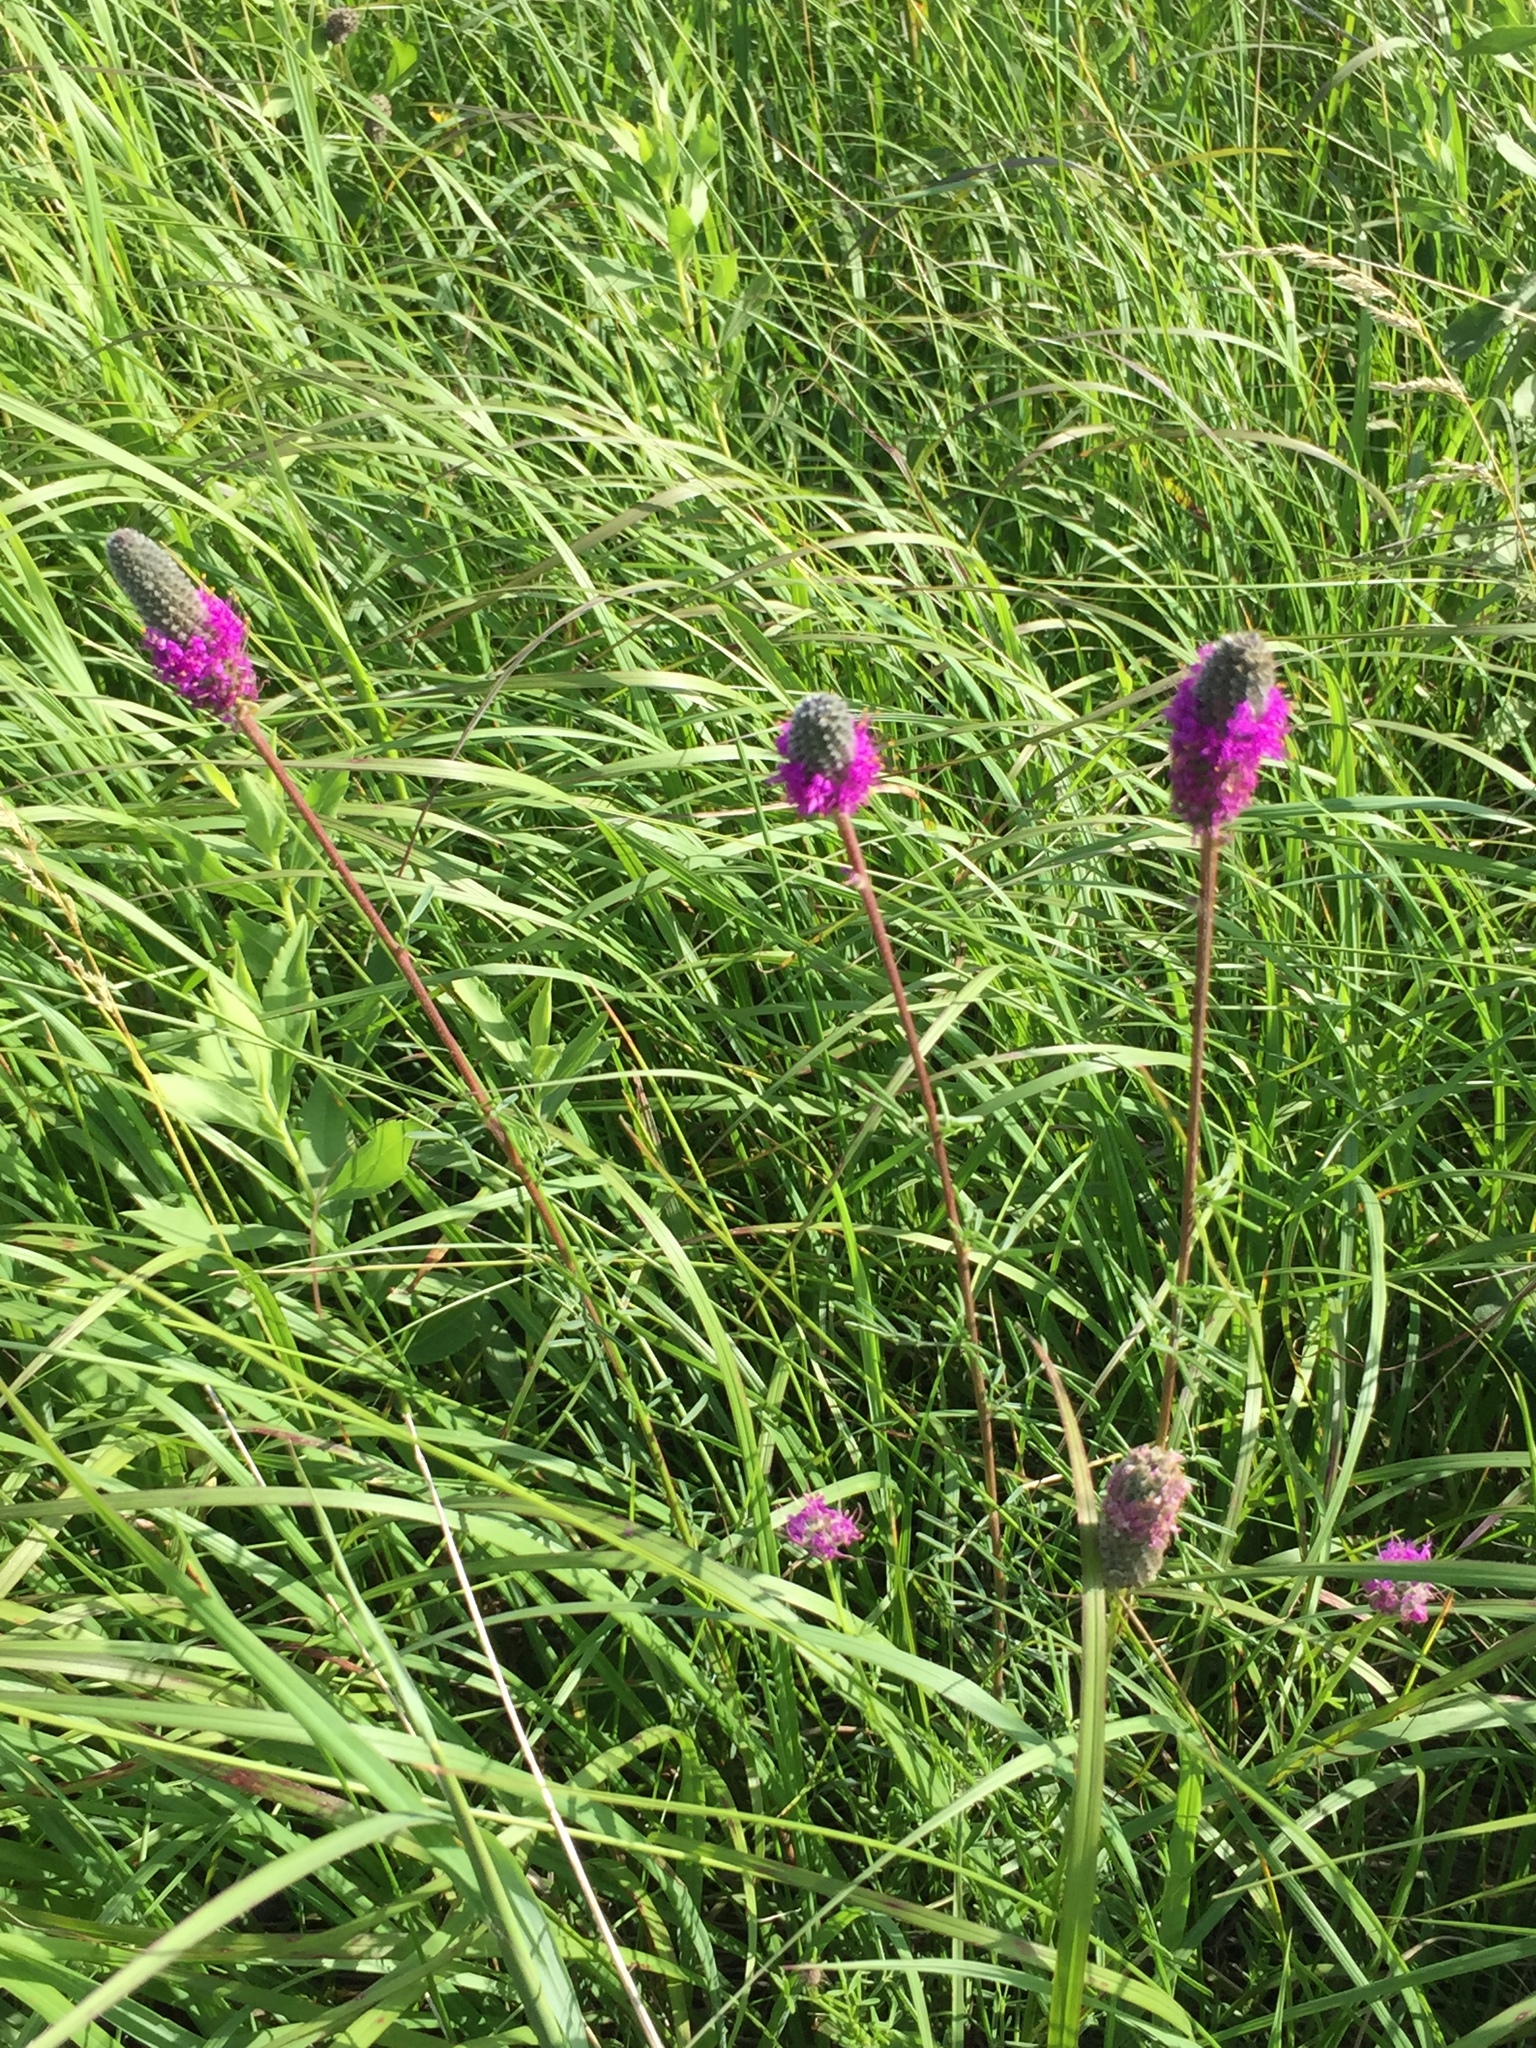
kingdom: Plantae
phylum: Tracheophyta
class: Magnoliopsida
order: Fabales
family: Fabaceae
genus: Dalea
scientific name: Dalea purpurea
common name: Purple prairie-clover
